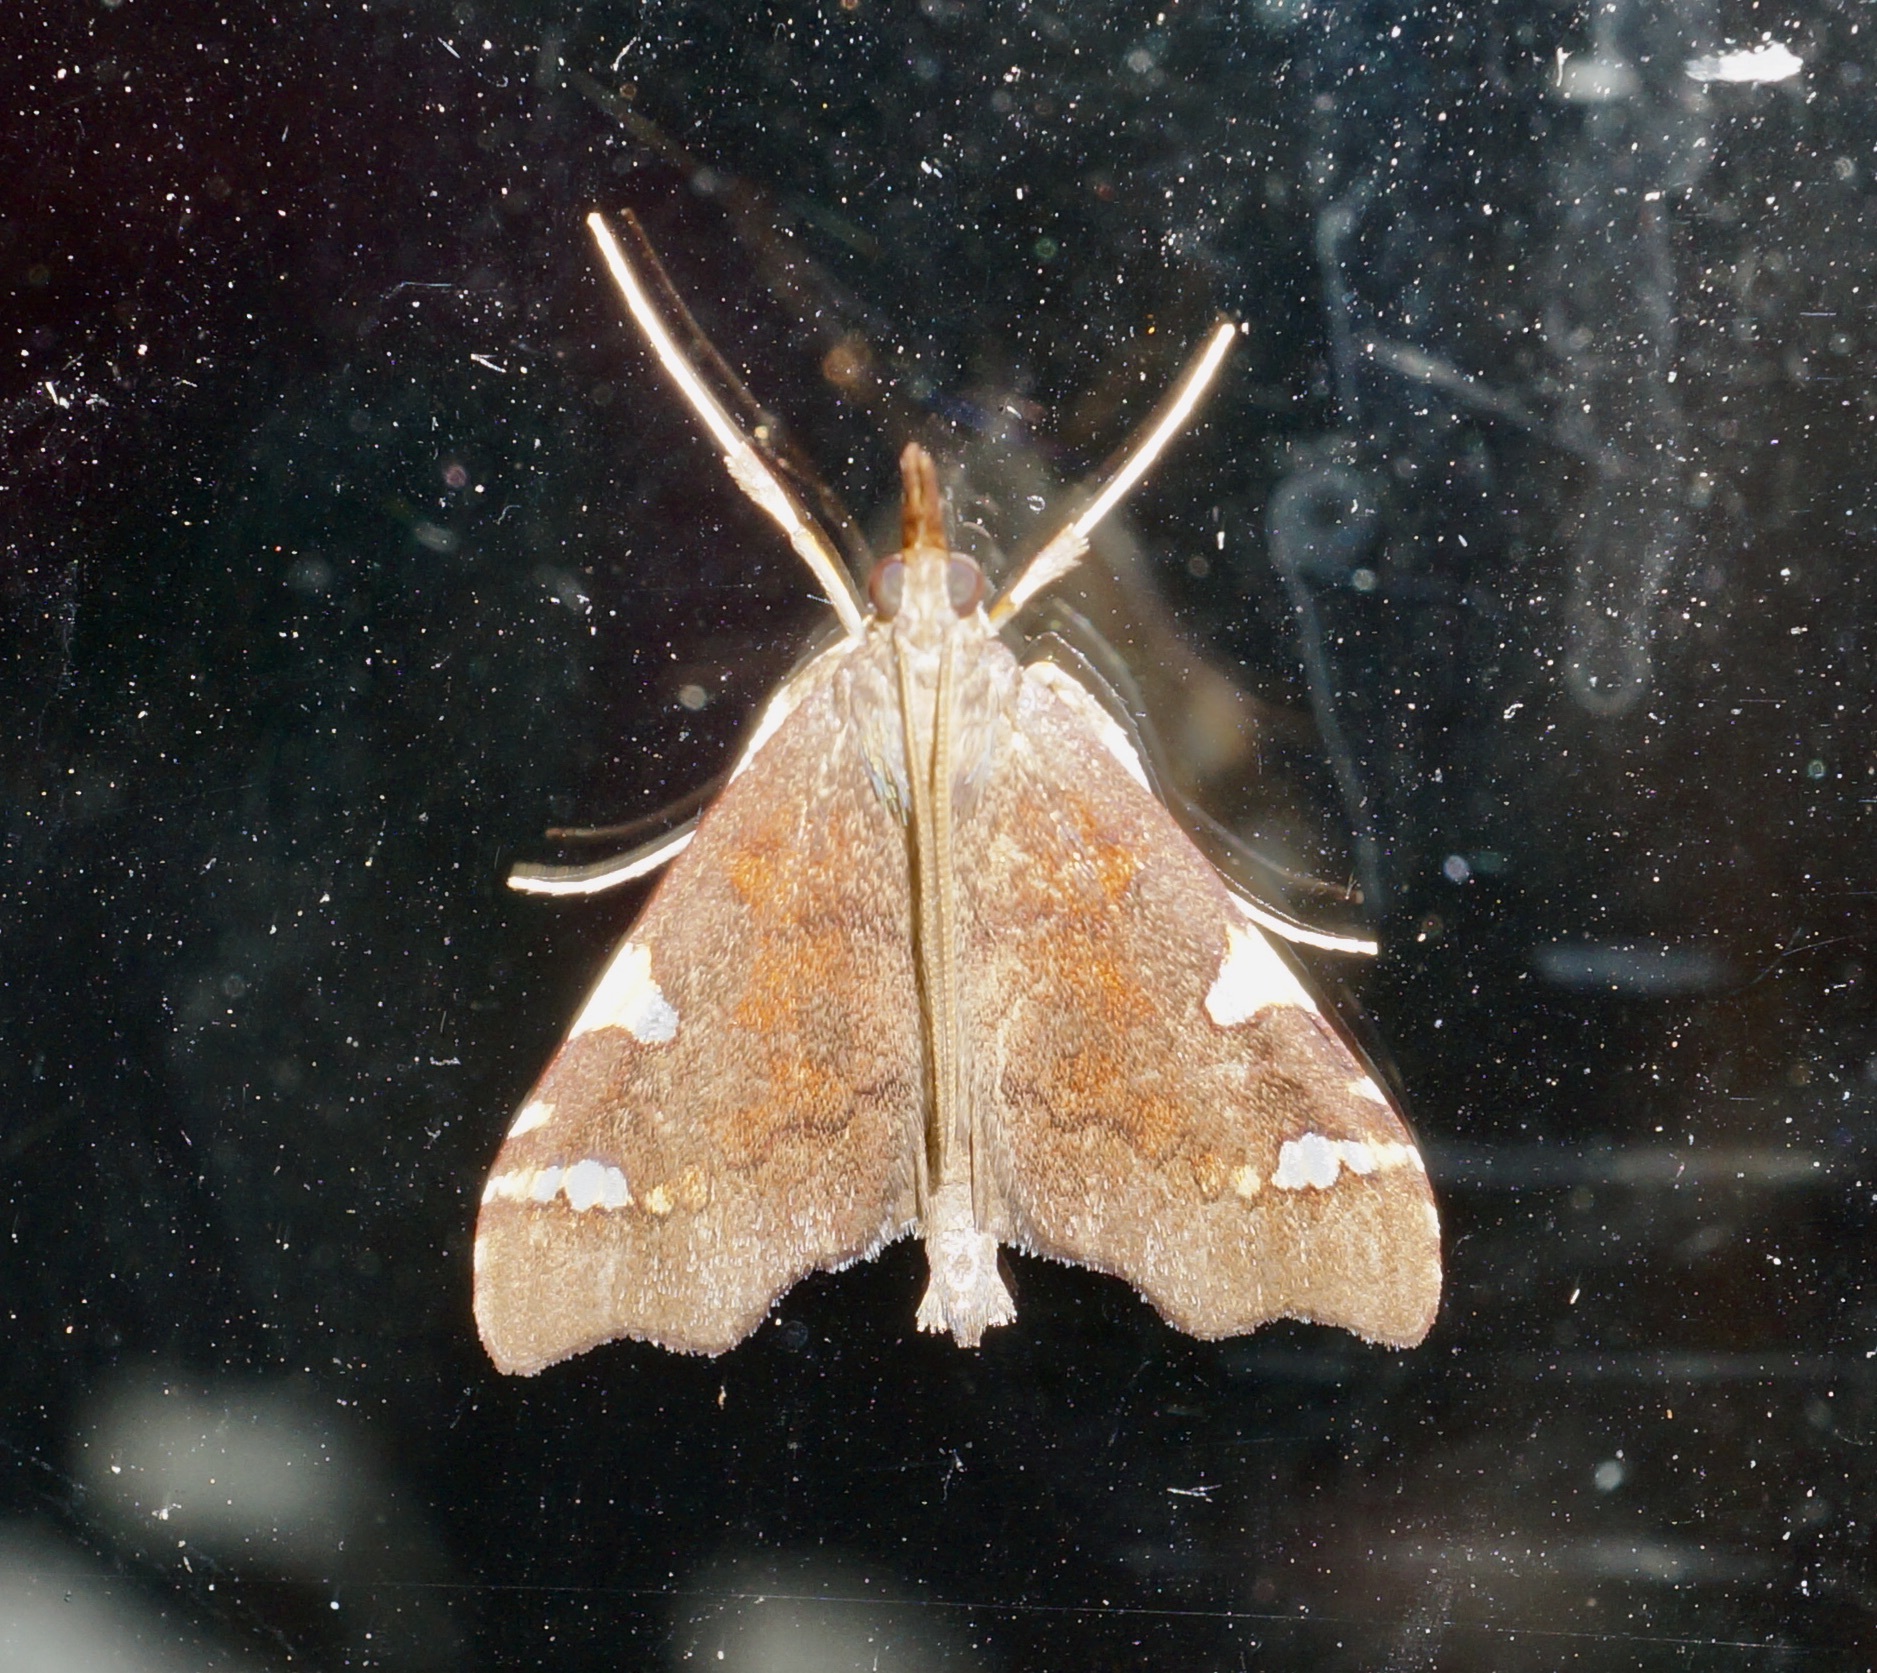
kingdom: Animalia
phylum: Arthropoda
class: Insecta
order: Lepidoptera
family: Crambidae
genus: Deana
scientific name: Deana hybreasalis
